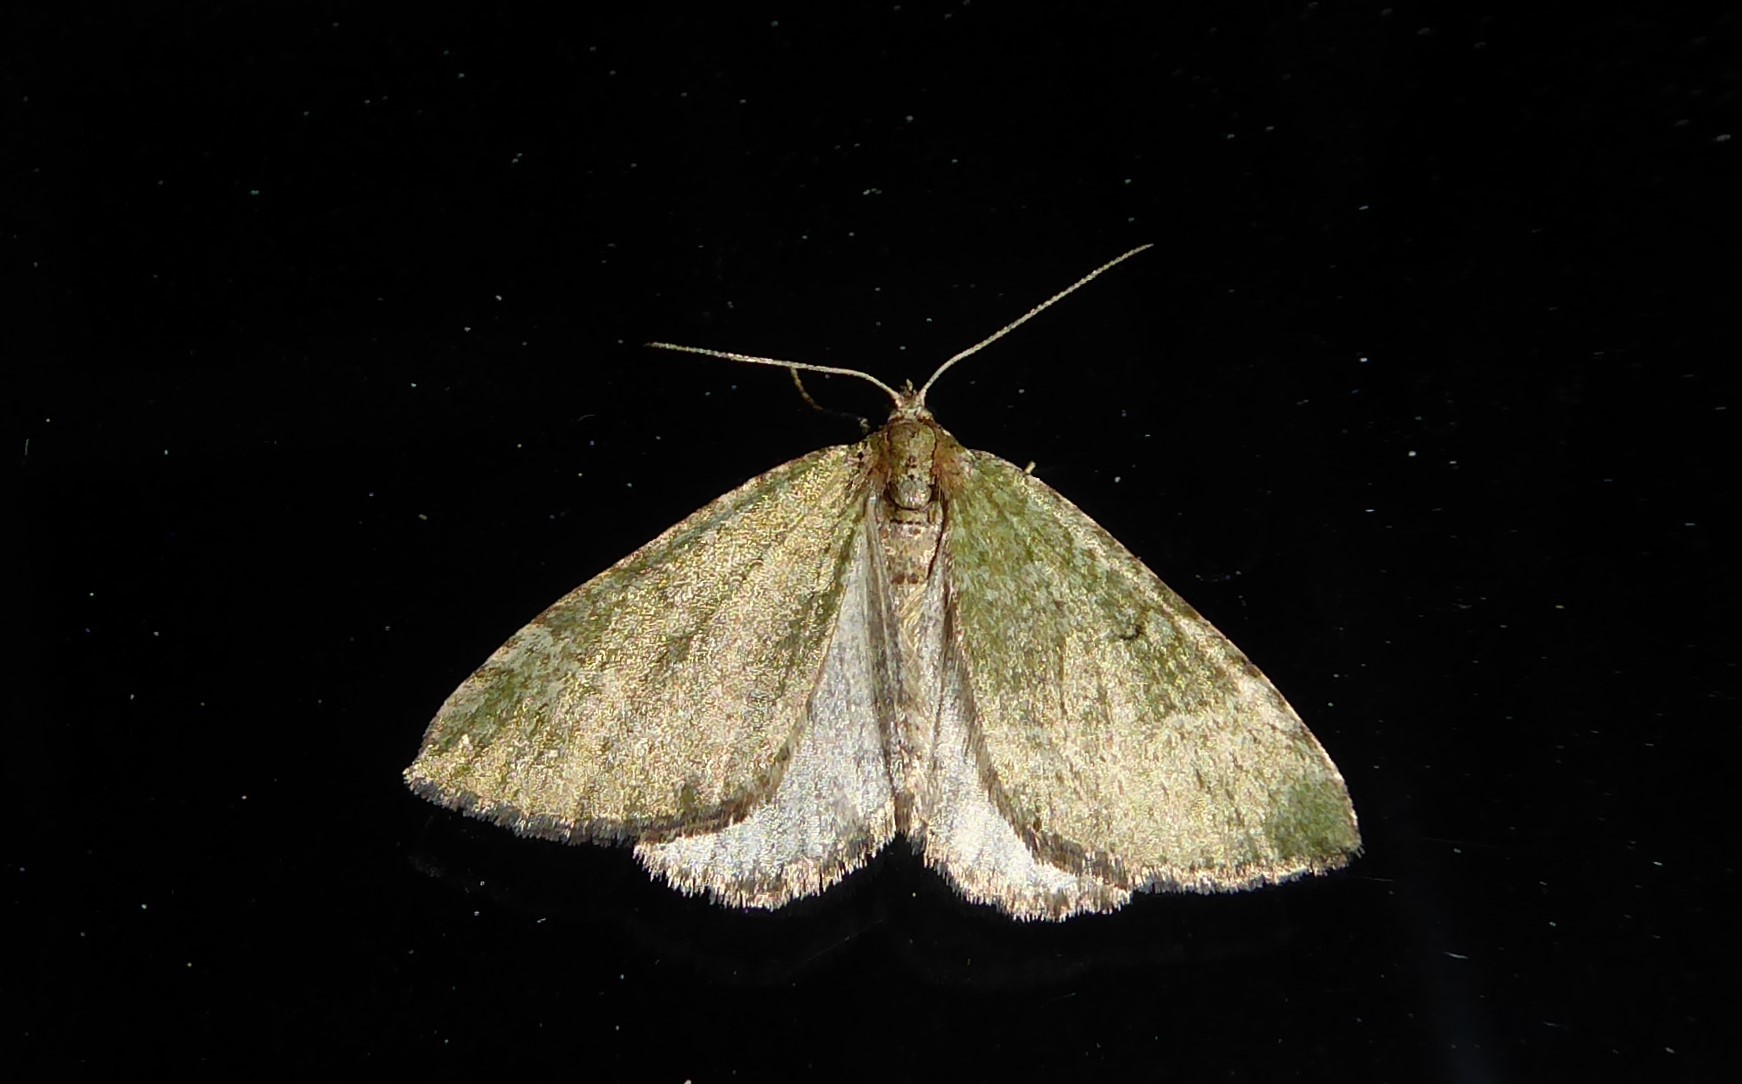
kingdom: Animalia
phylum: Arthropoda
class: Insecta
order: Lepidoptera
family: Geometridae
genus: Epyaxa
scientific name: Epyaxa rosearia
